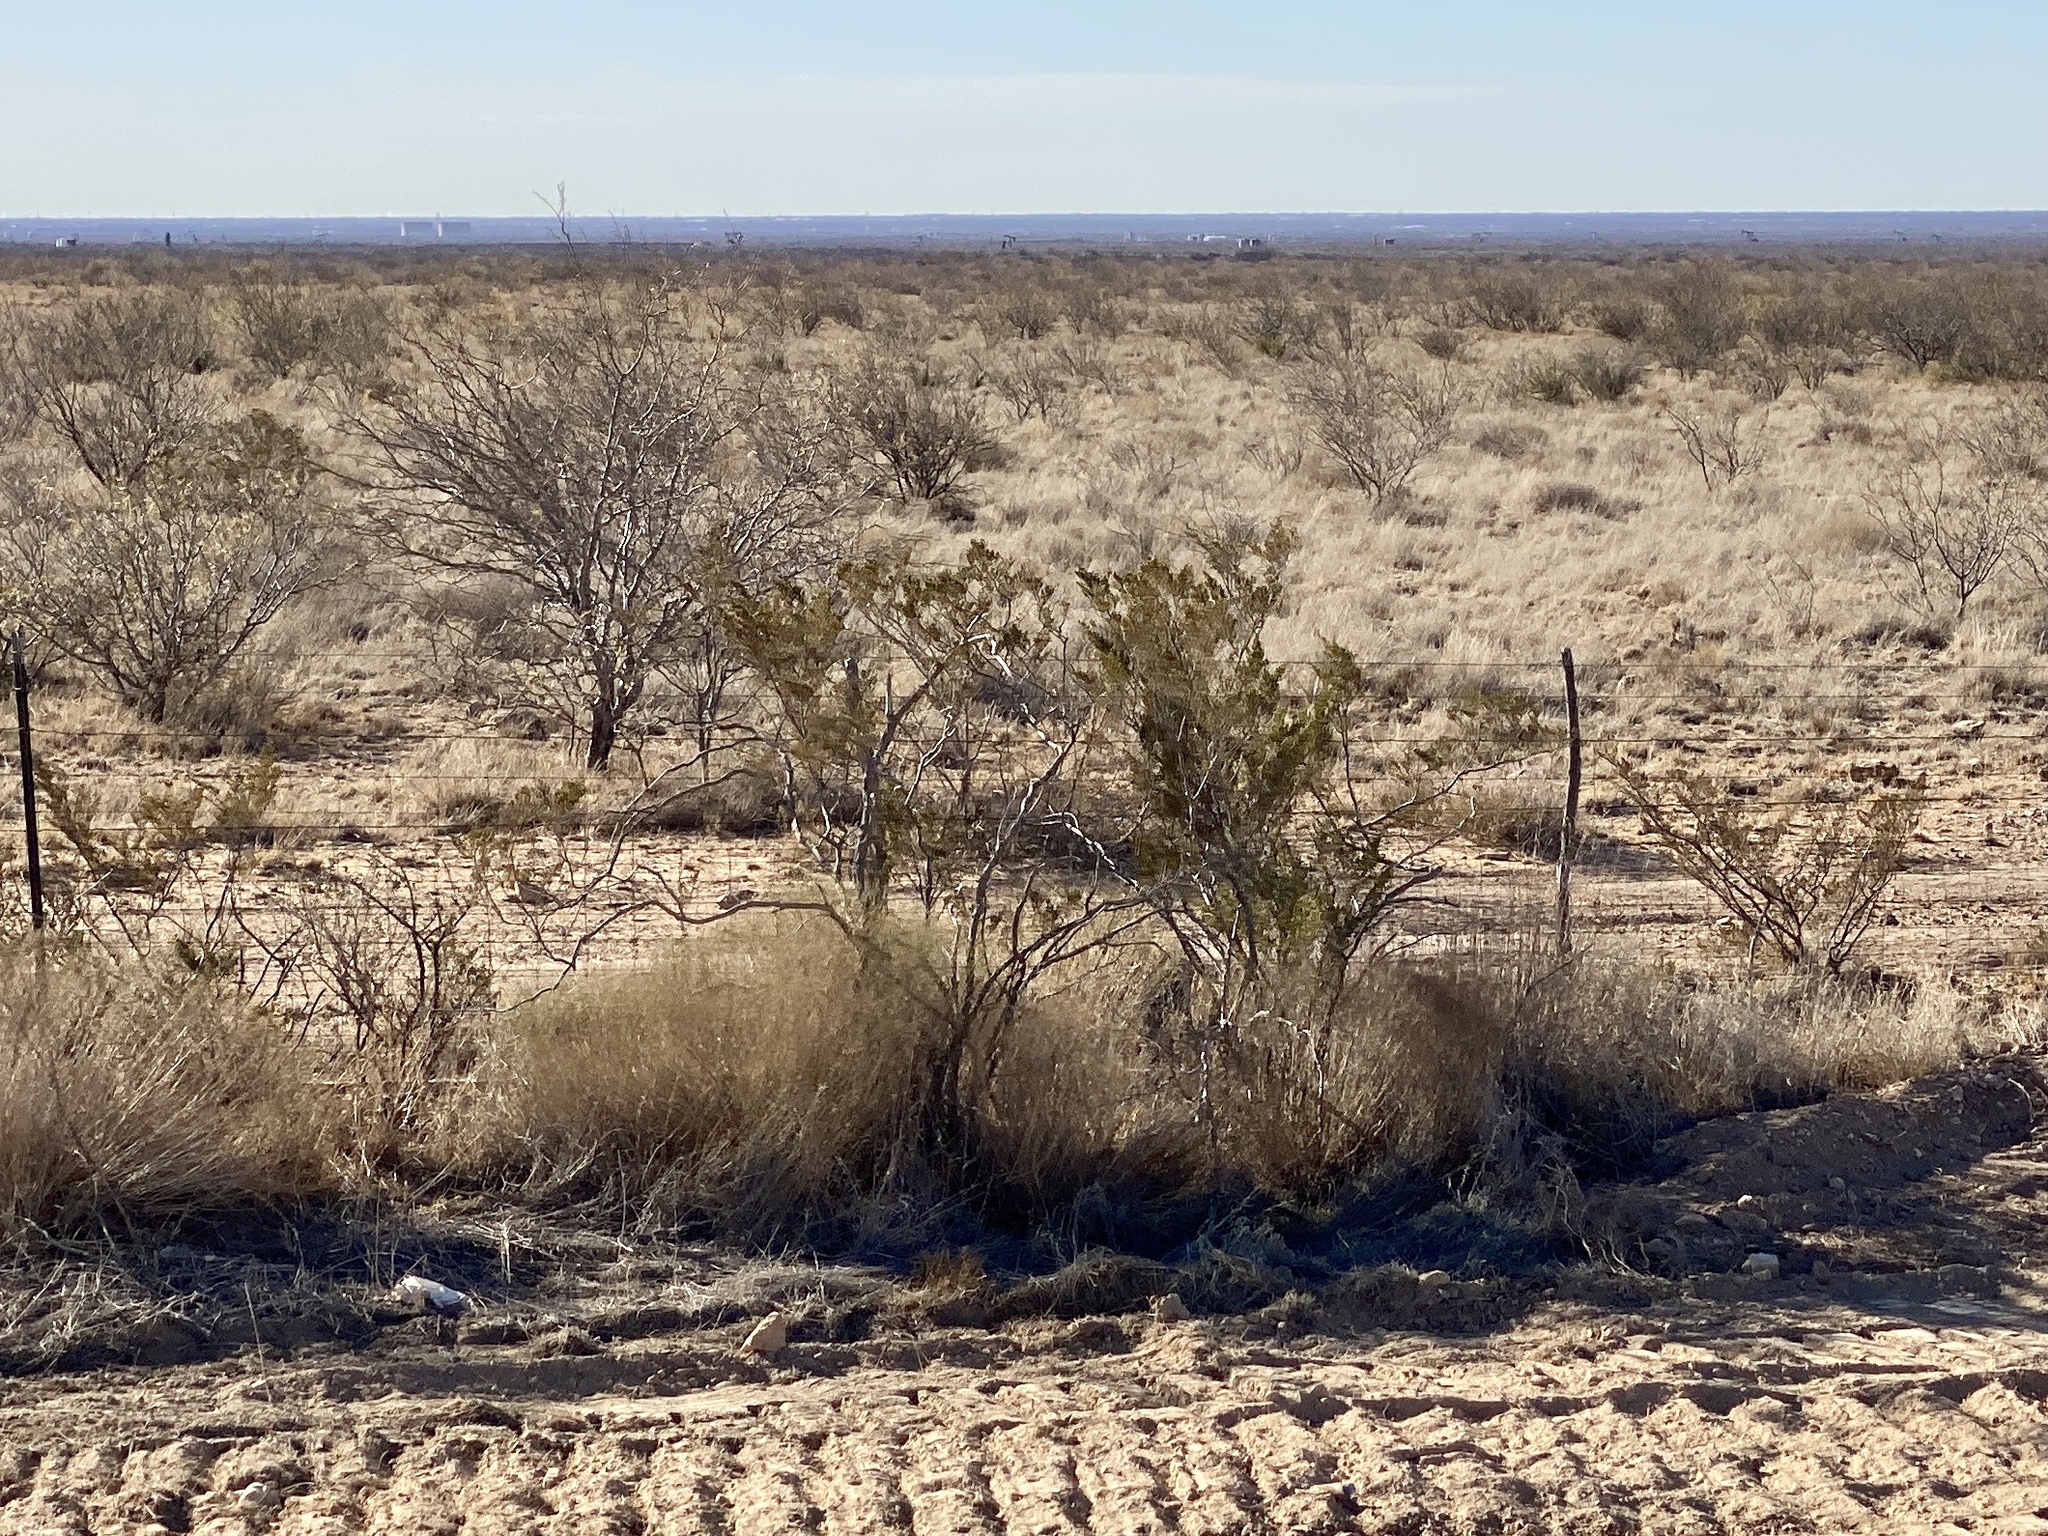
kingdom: Plantae
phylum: Tracheophyta
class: Magnoliopsida
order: Zygophyllales
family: Zygophyllaceae
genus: Larrea
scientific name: Larrea tridentata
